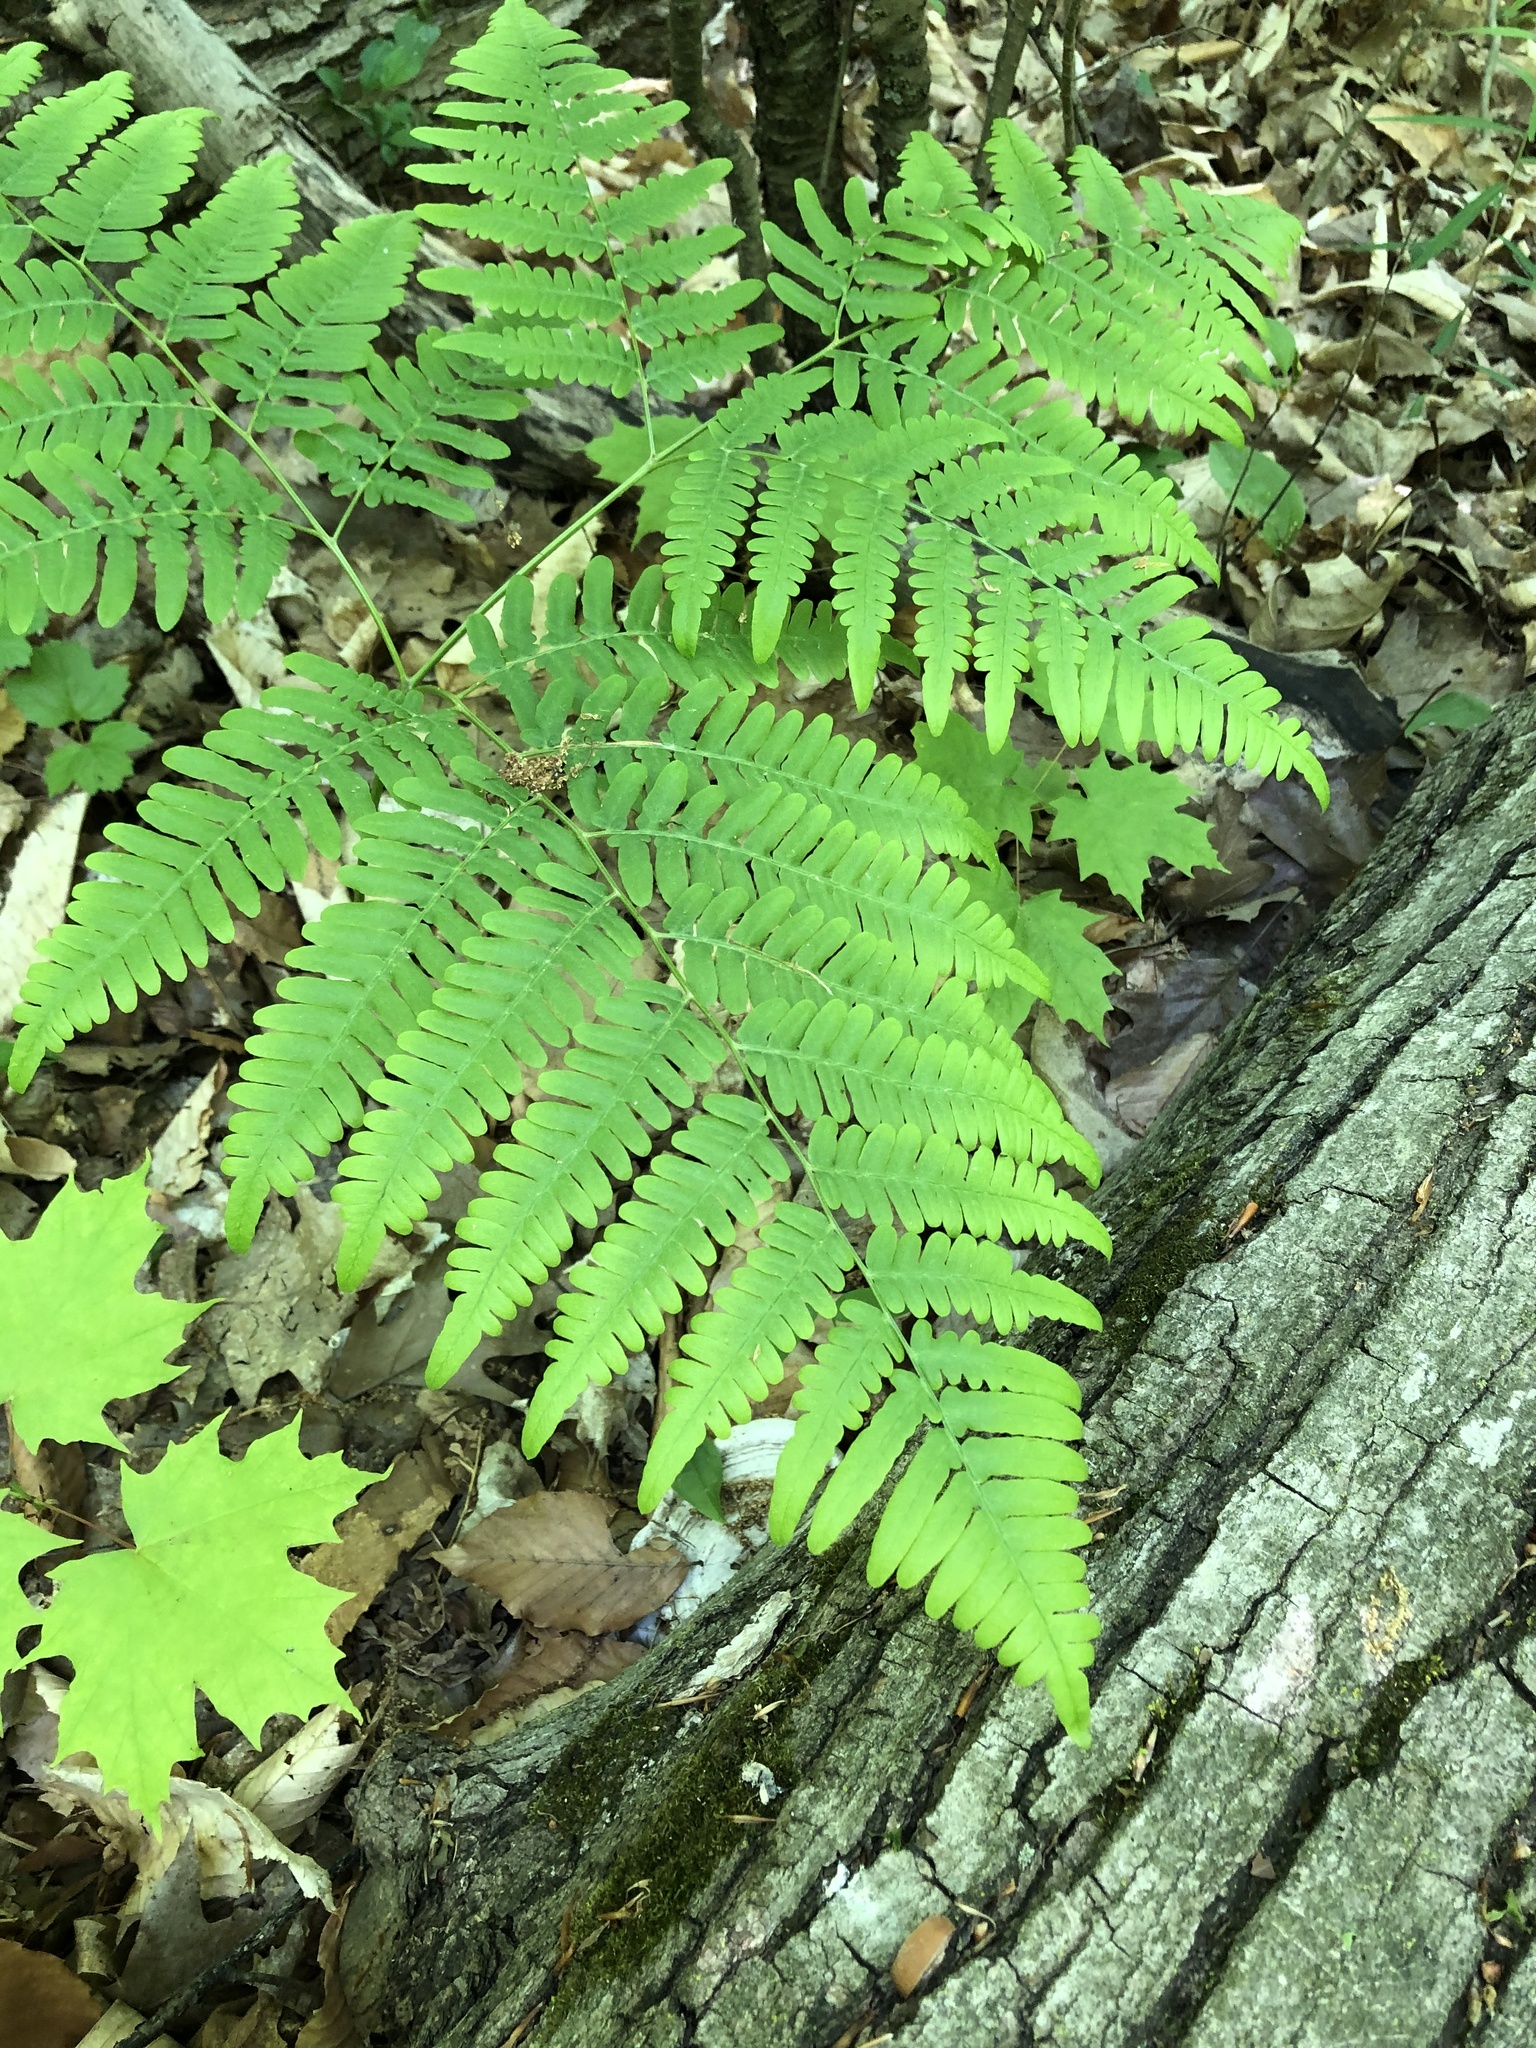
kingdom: Plantae
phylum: Tracheophyta
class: Polypodiopsida
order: Polypodiales
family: Dennstaedtiaceae
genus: Pteridium
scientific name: Pteridium aquilinum
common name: Bracken
